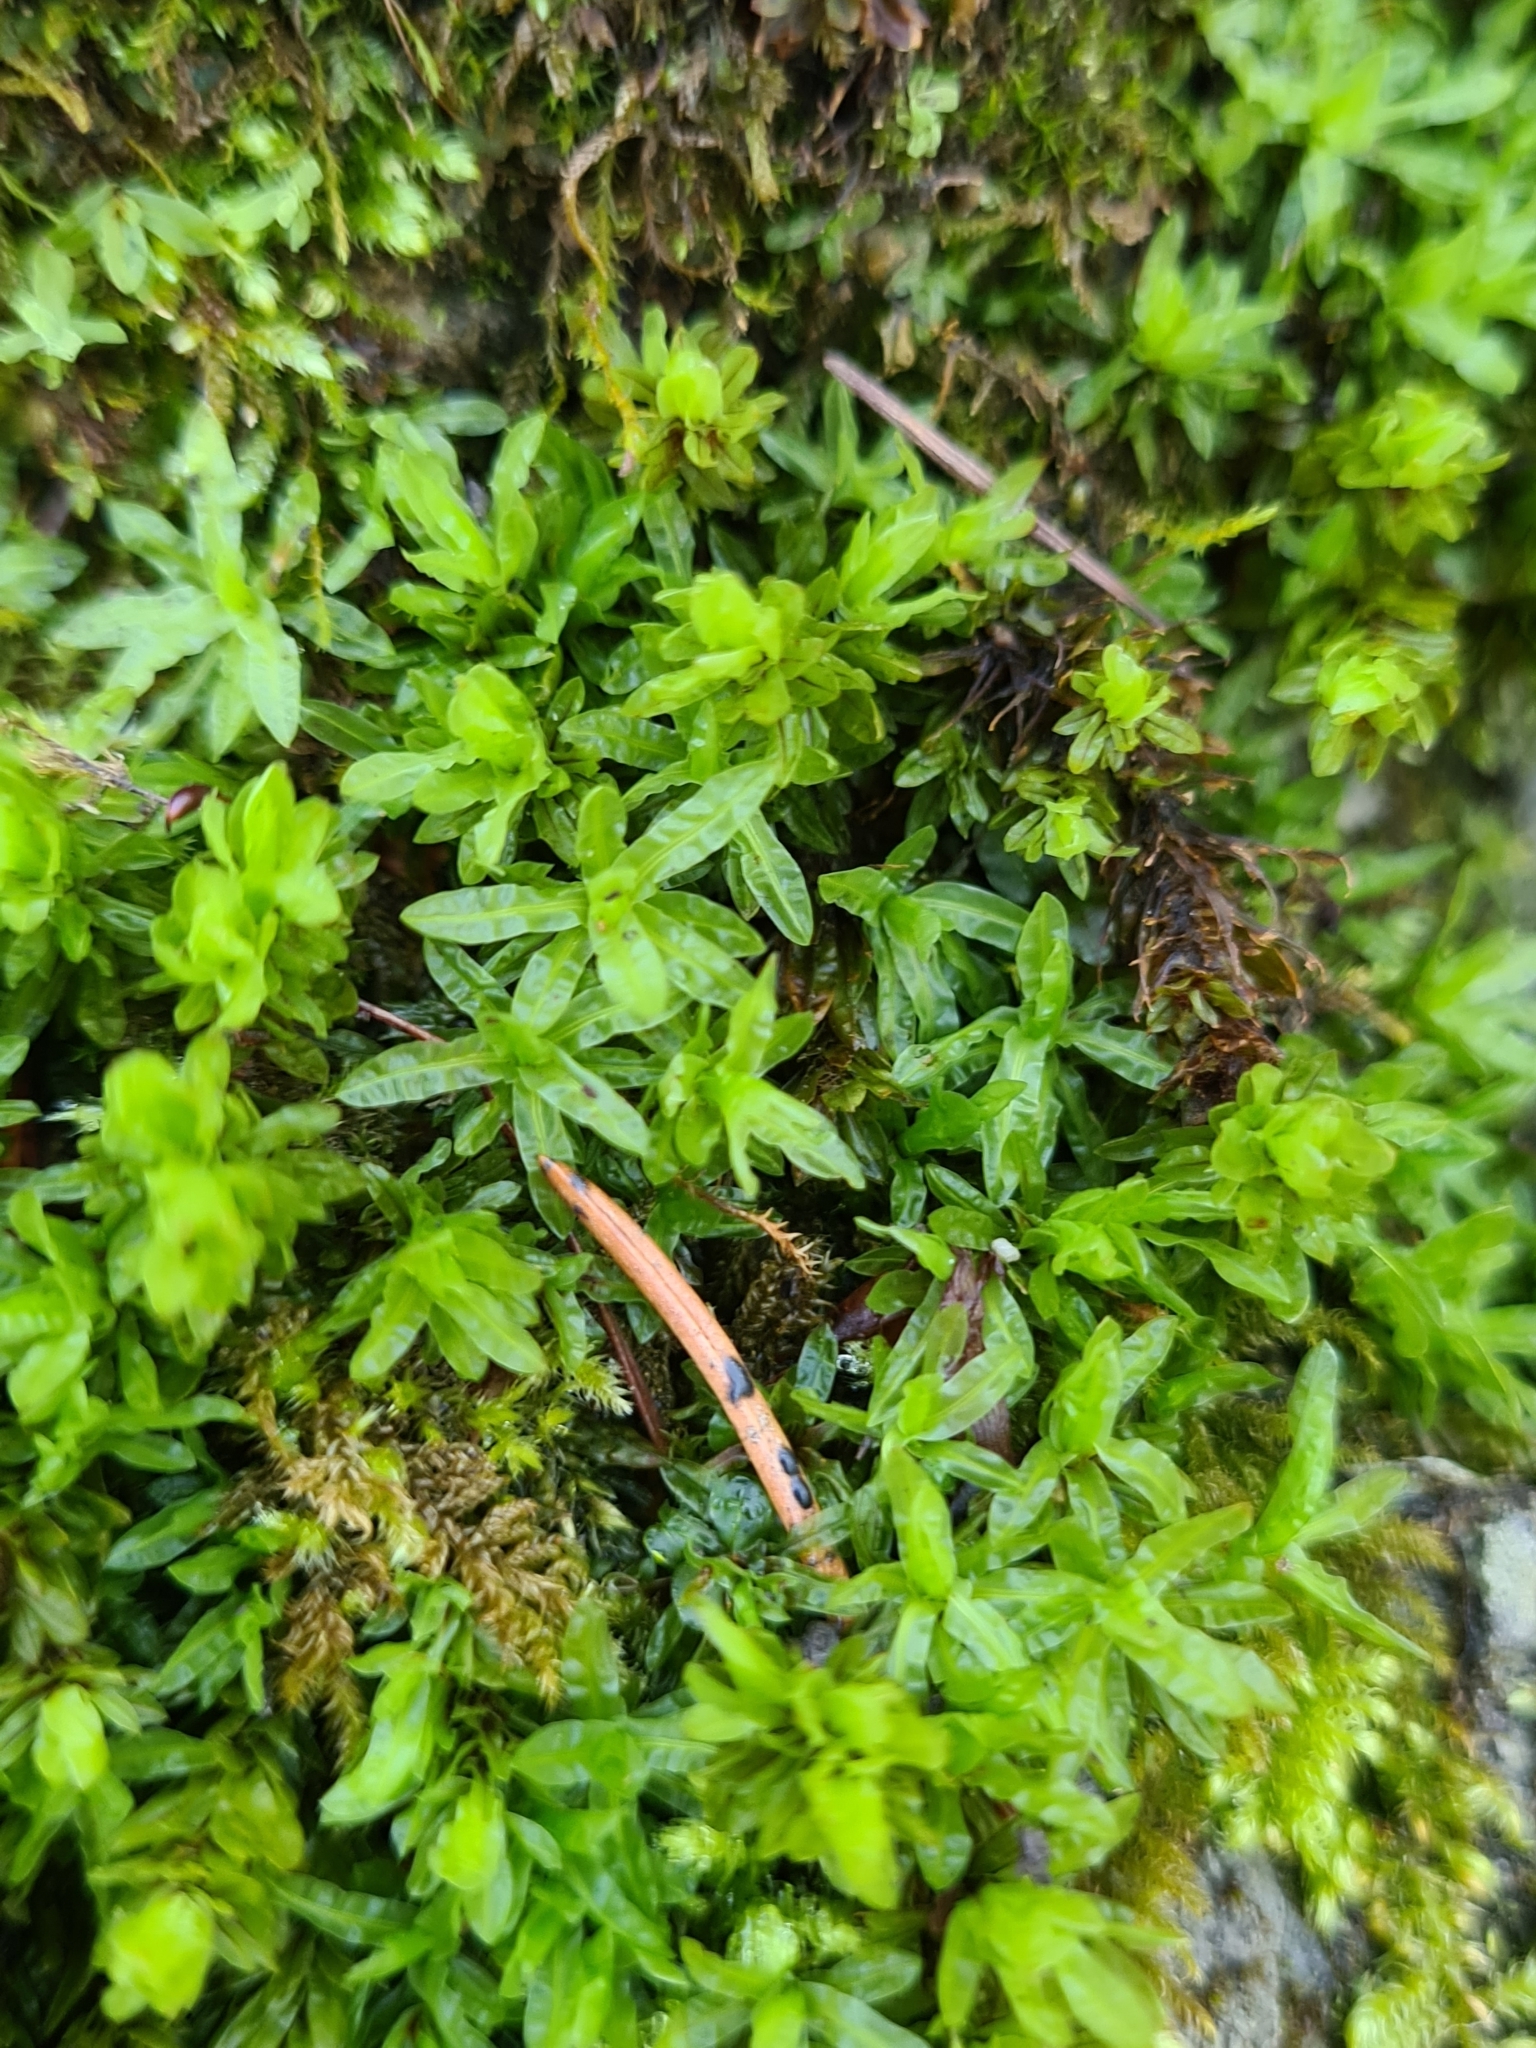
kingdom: Plantae
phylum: Bryophyta
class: Bryopsida
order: Encalyptales
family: Encalyptaceae
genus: Encalypta
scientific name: Encalypta streptocarpa
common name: Spiral extinguisher-moss
